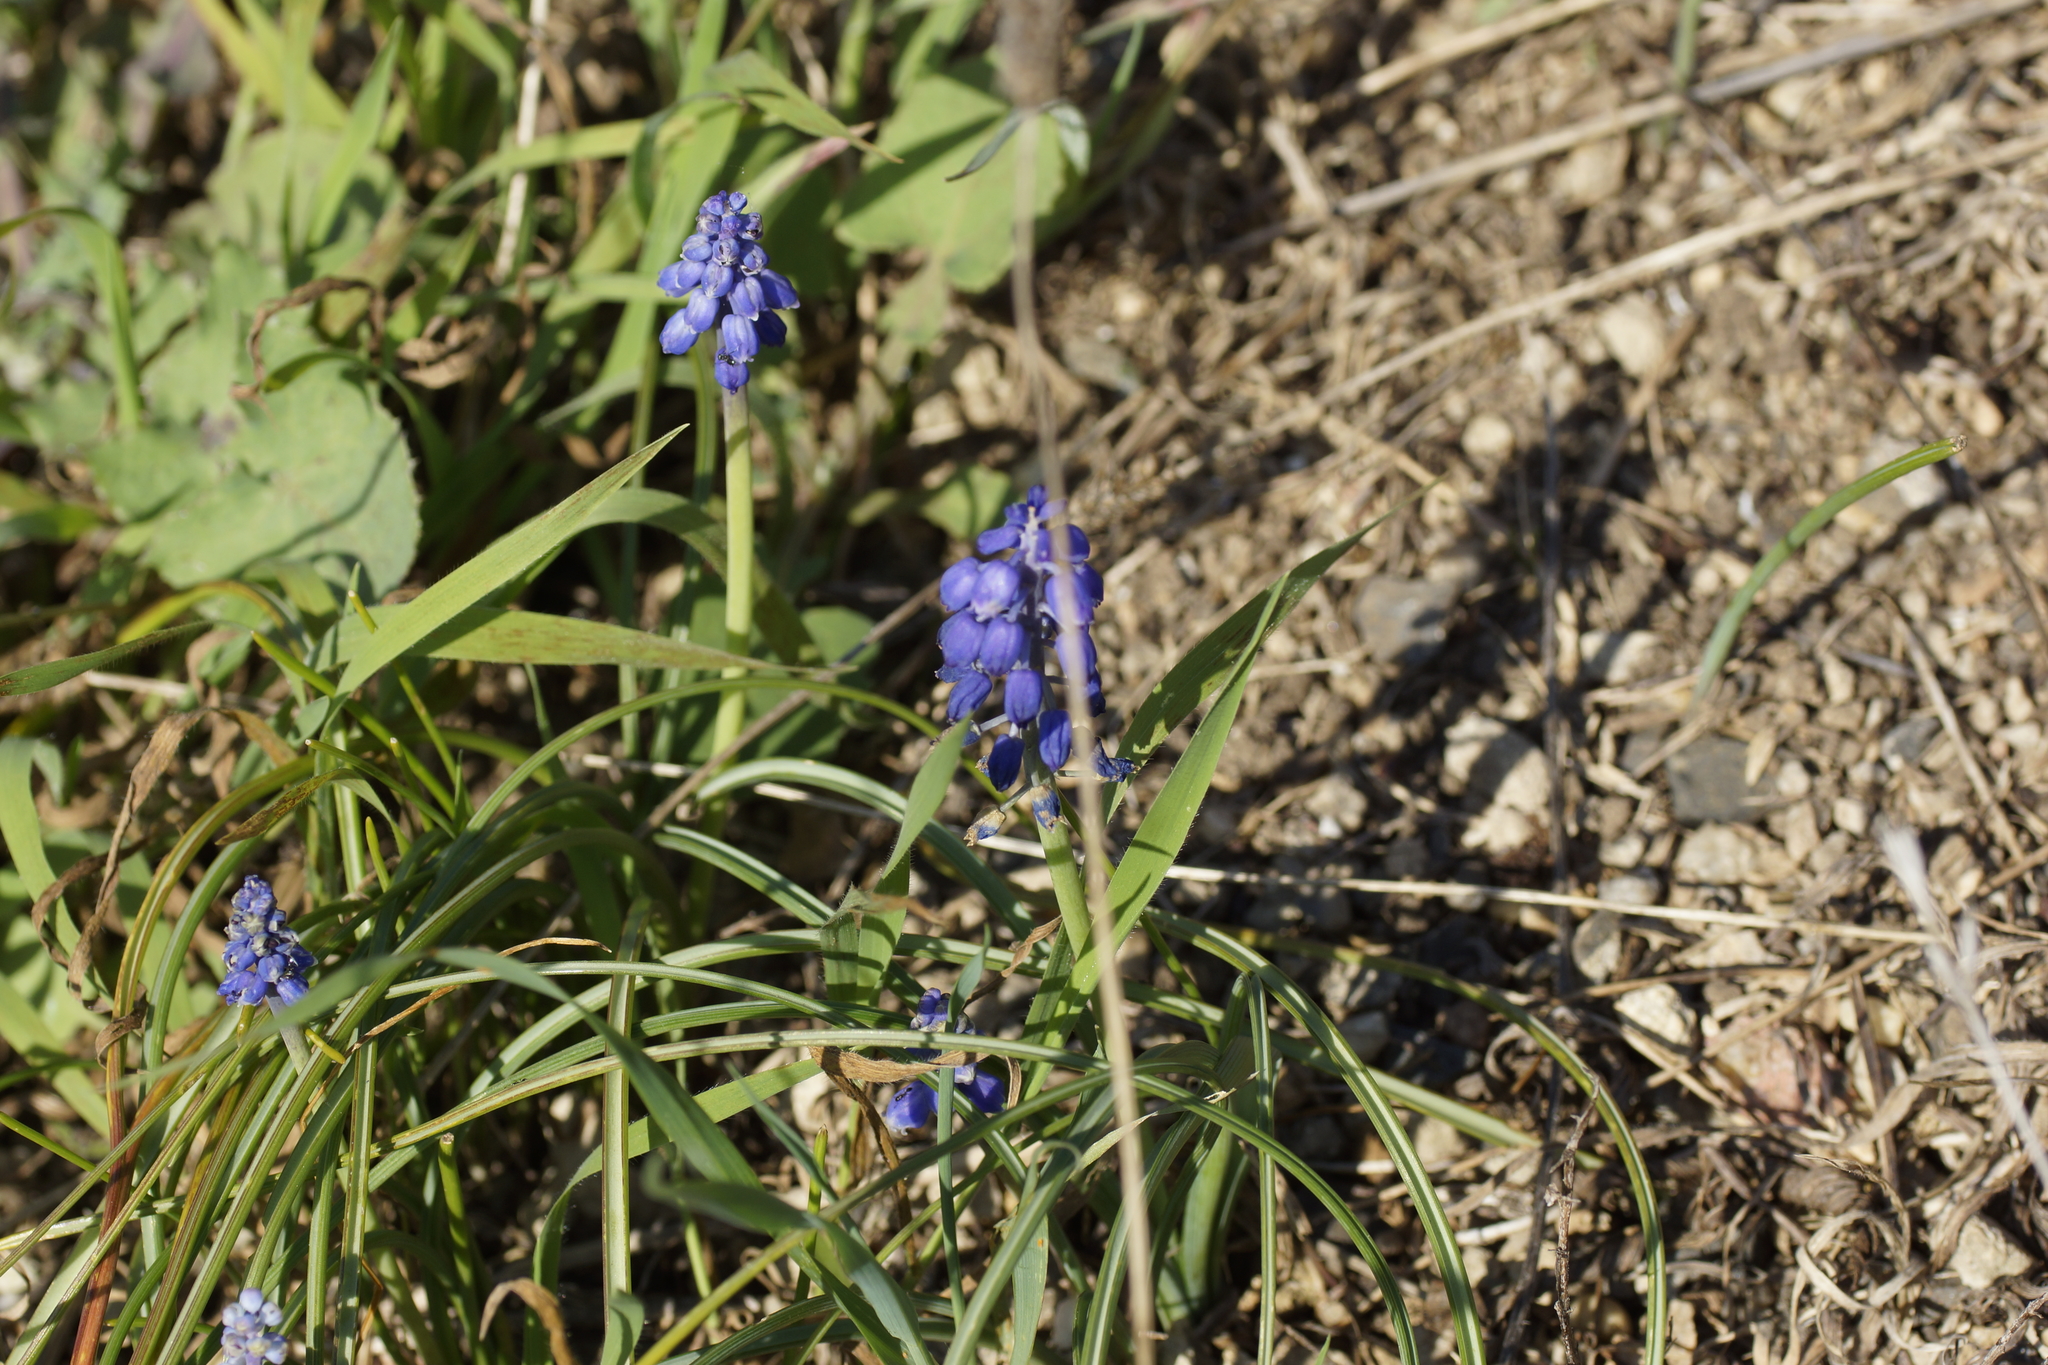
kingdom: Plantae
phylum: Tracheophyta
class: Liliopsida
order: Asparagales
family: Asparagaceae
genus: Muscari
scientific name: Muscari armeniacum
